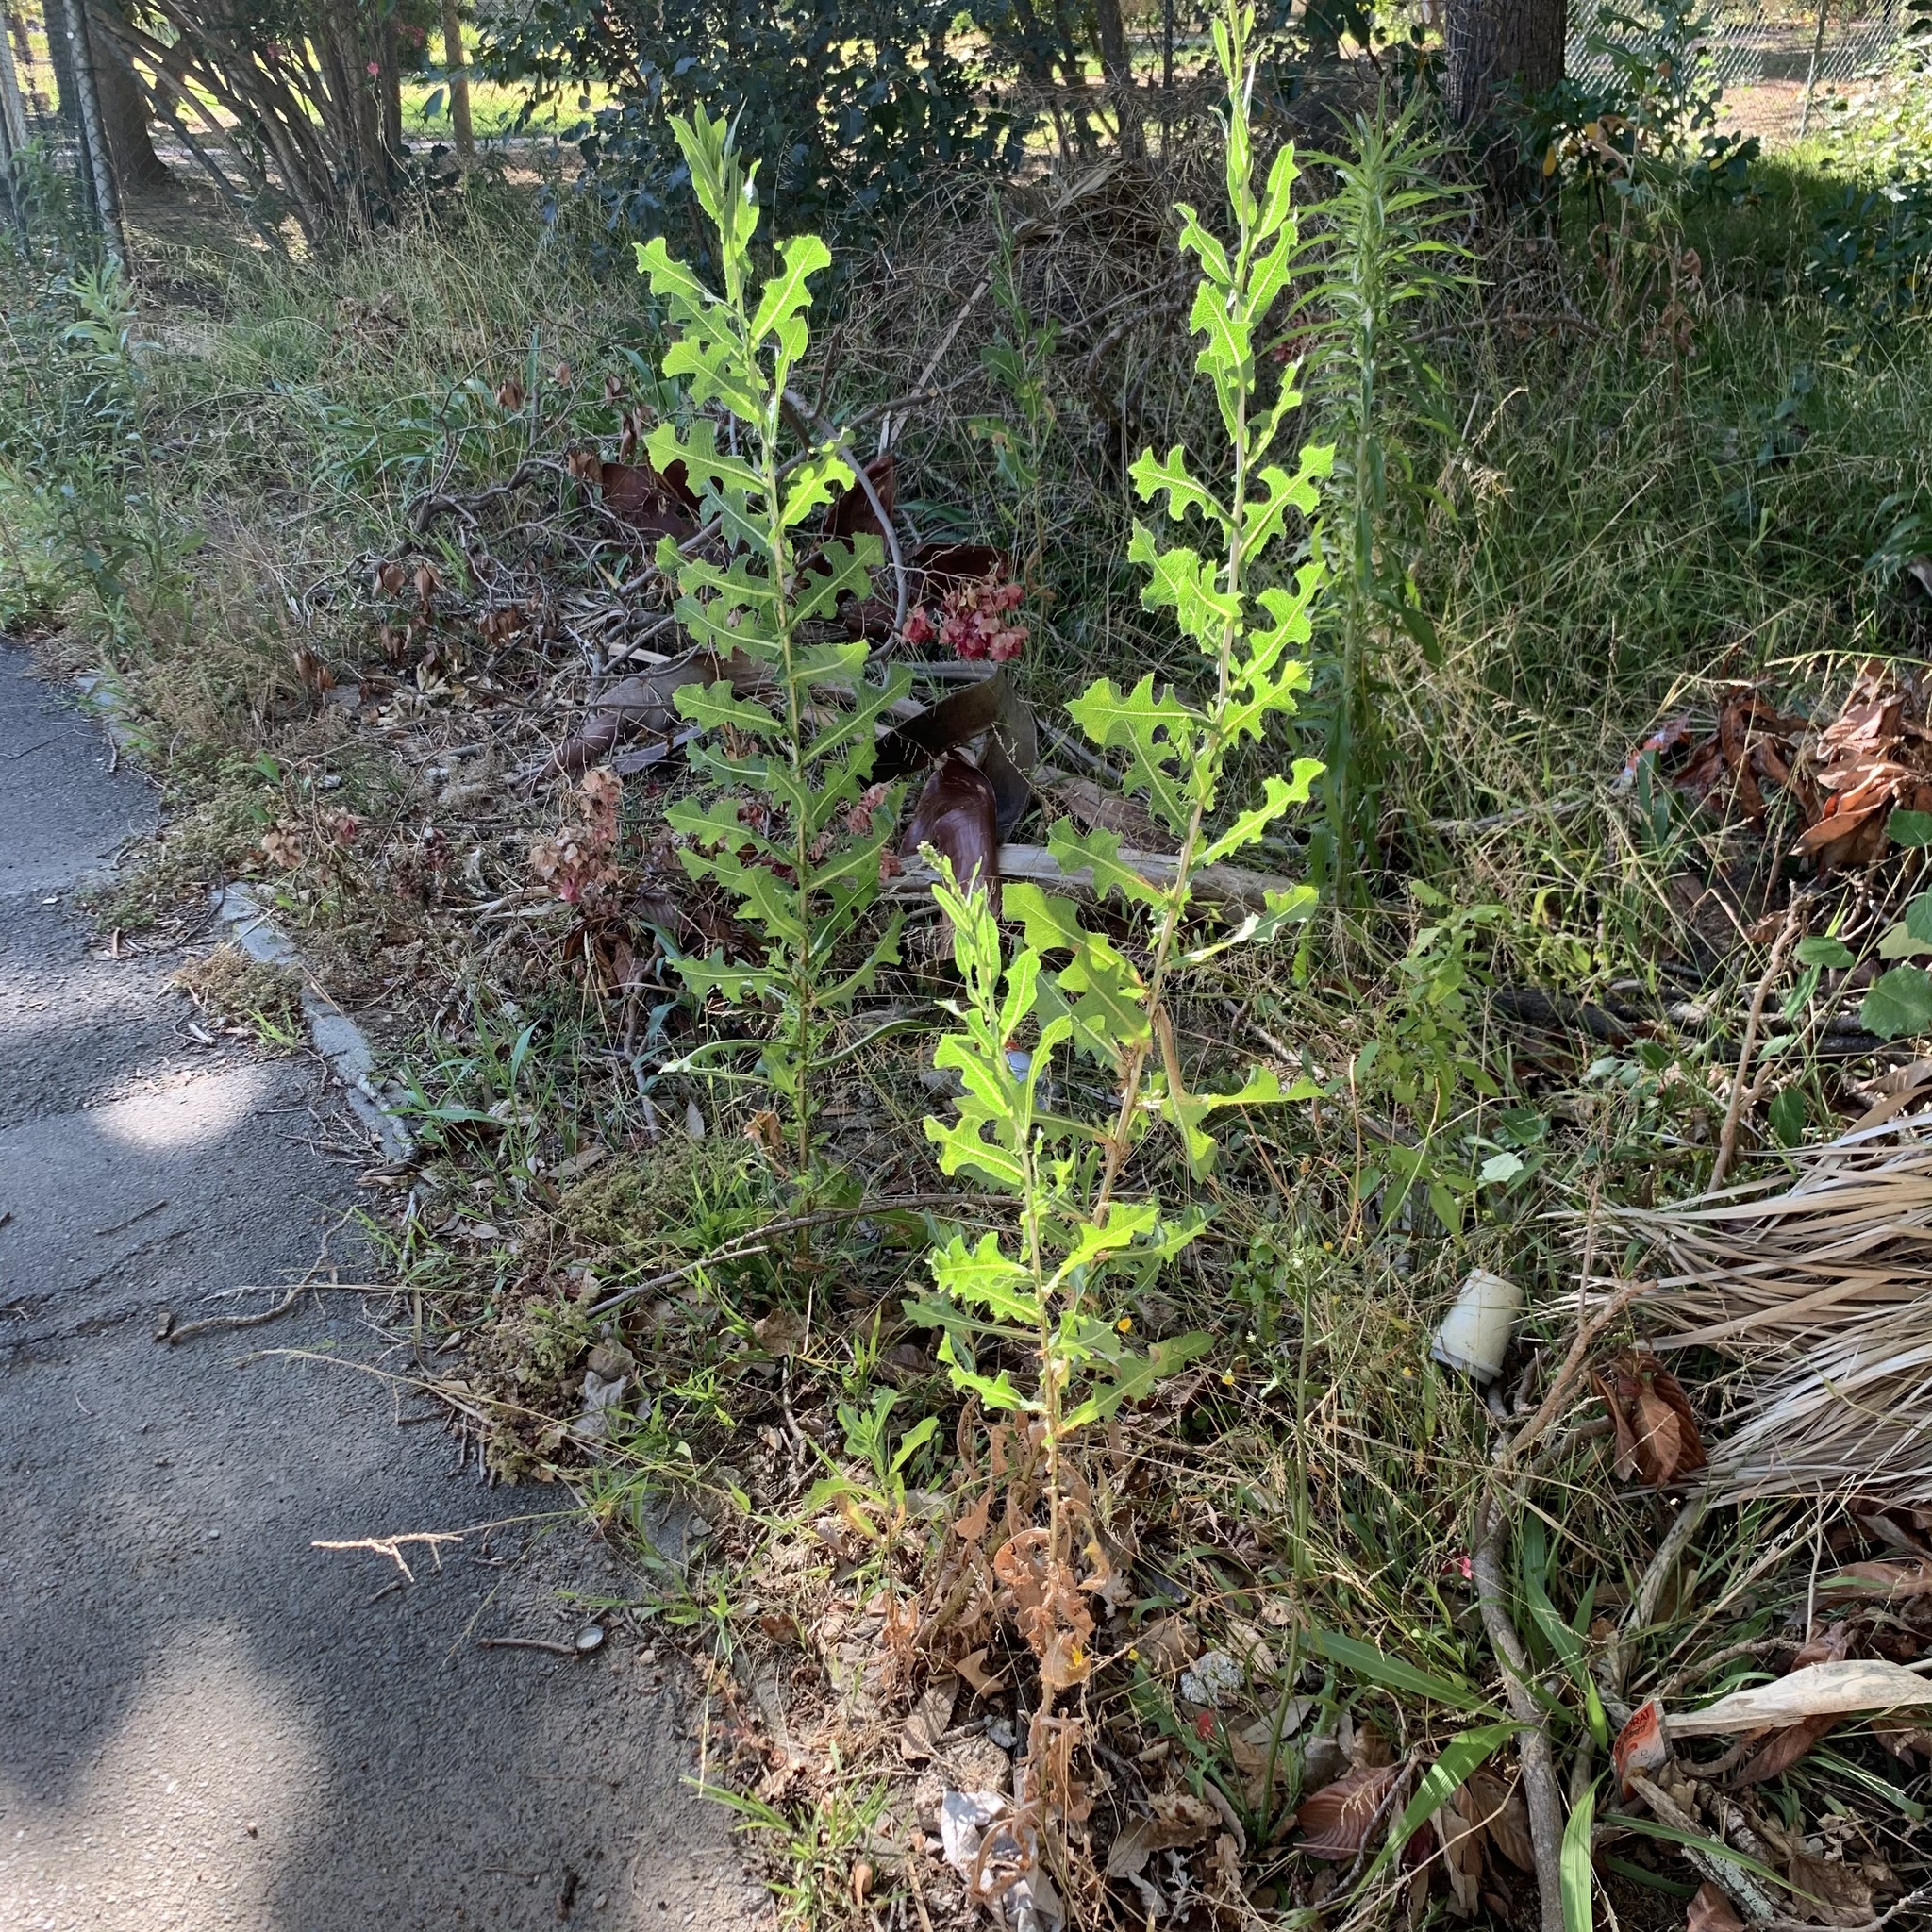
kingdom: Plantae
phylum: Tracheophyta
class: Magnoliopsida
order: Asterales
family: Asteraceae
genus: Lactuca
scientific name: Lactuca serriola
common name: Prickly lettuce
